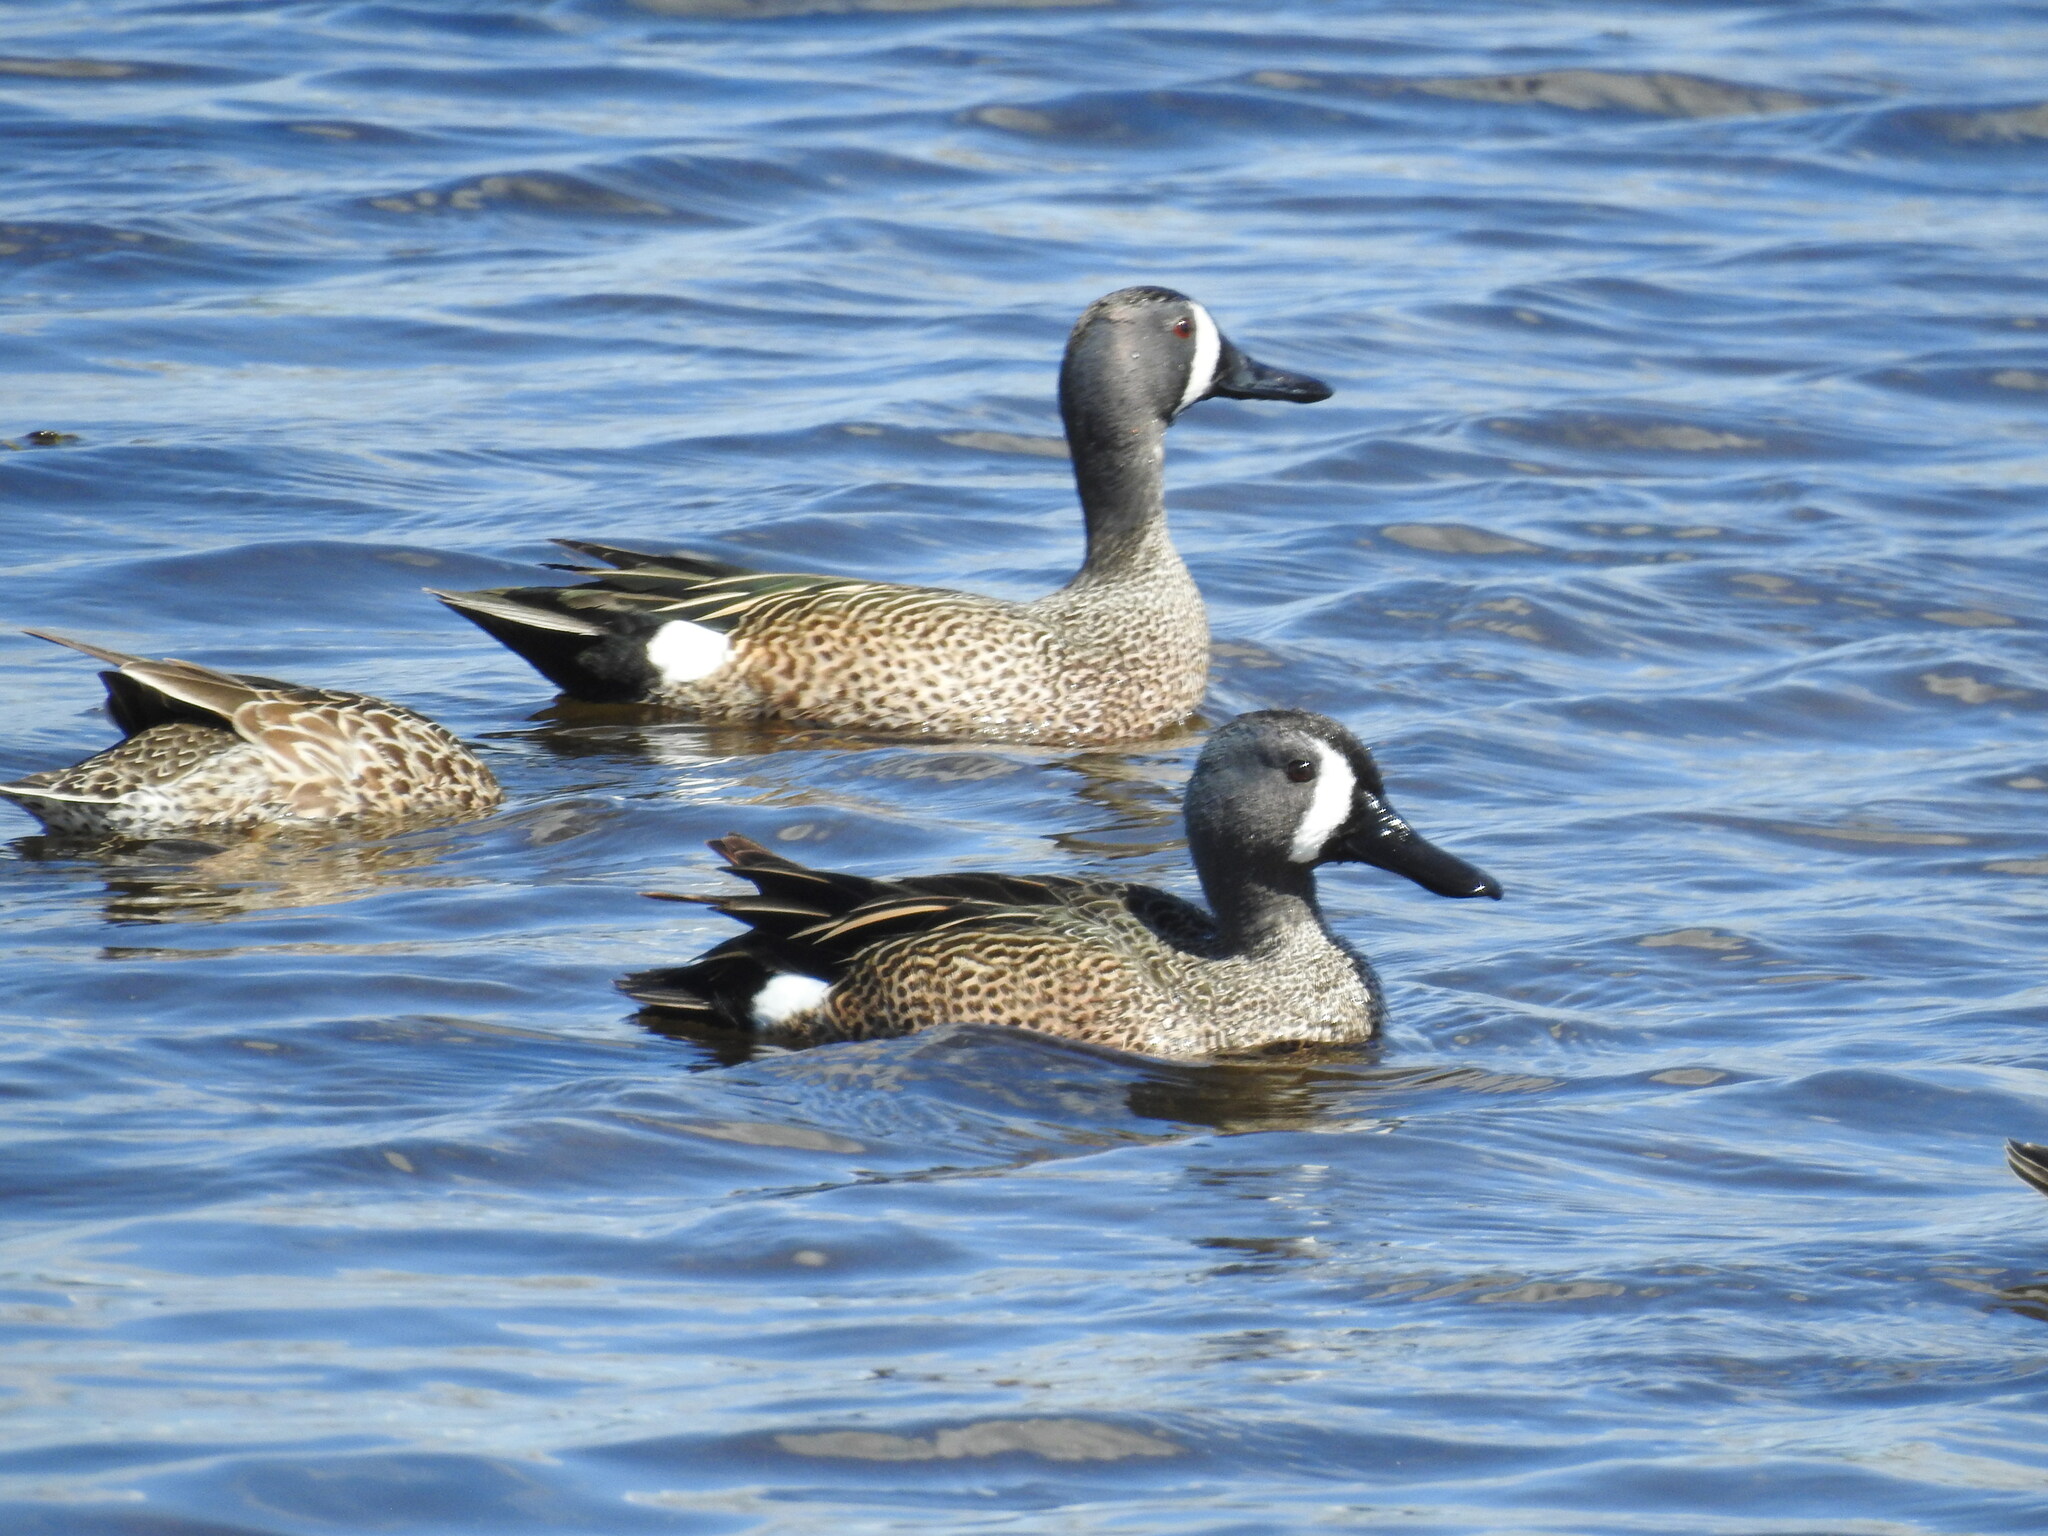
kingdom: Animalia
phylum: Chordata
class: Aves
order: Anseriformes
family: Anatidae
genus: Spatula
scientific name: Spatula discors
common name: Blue-winged teal
